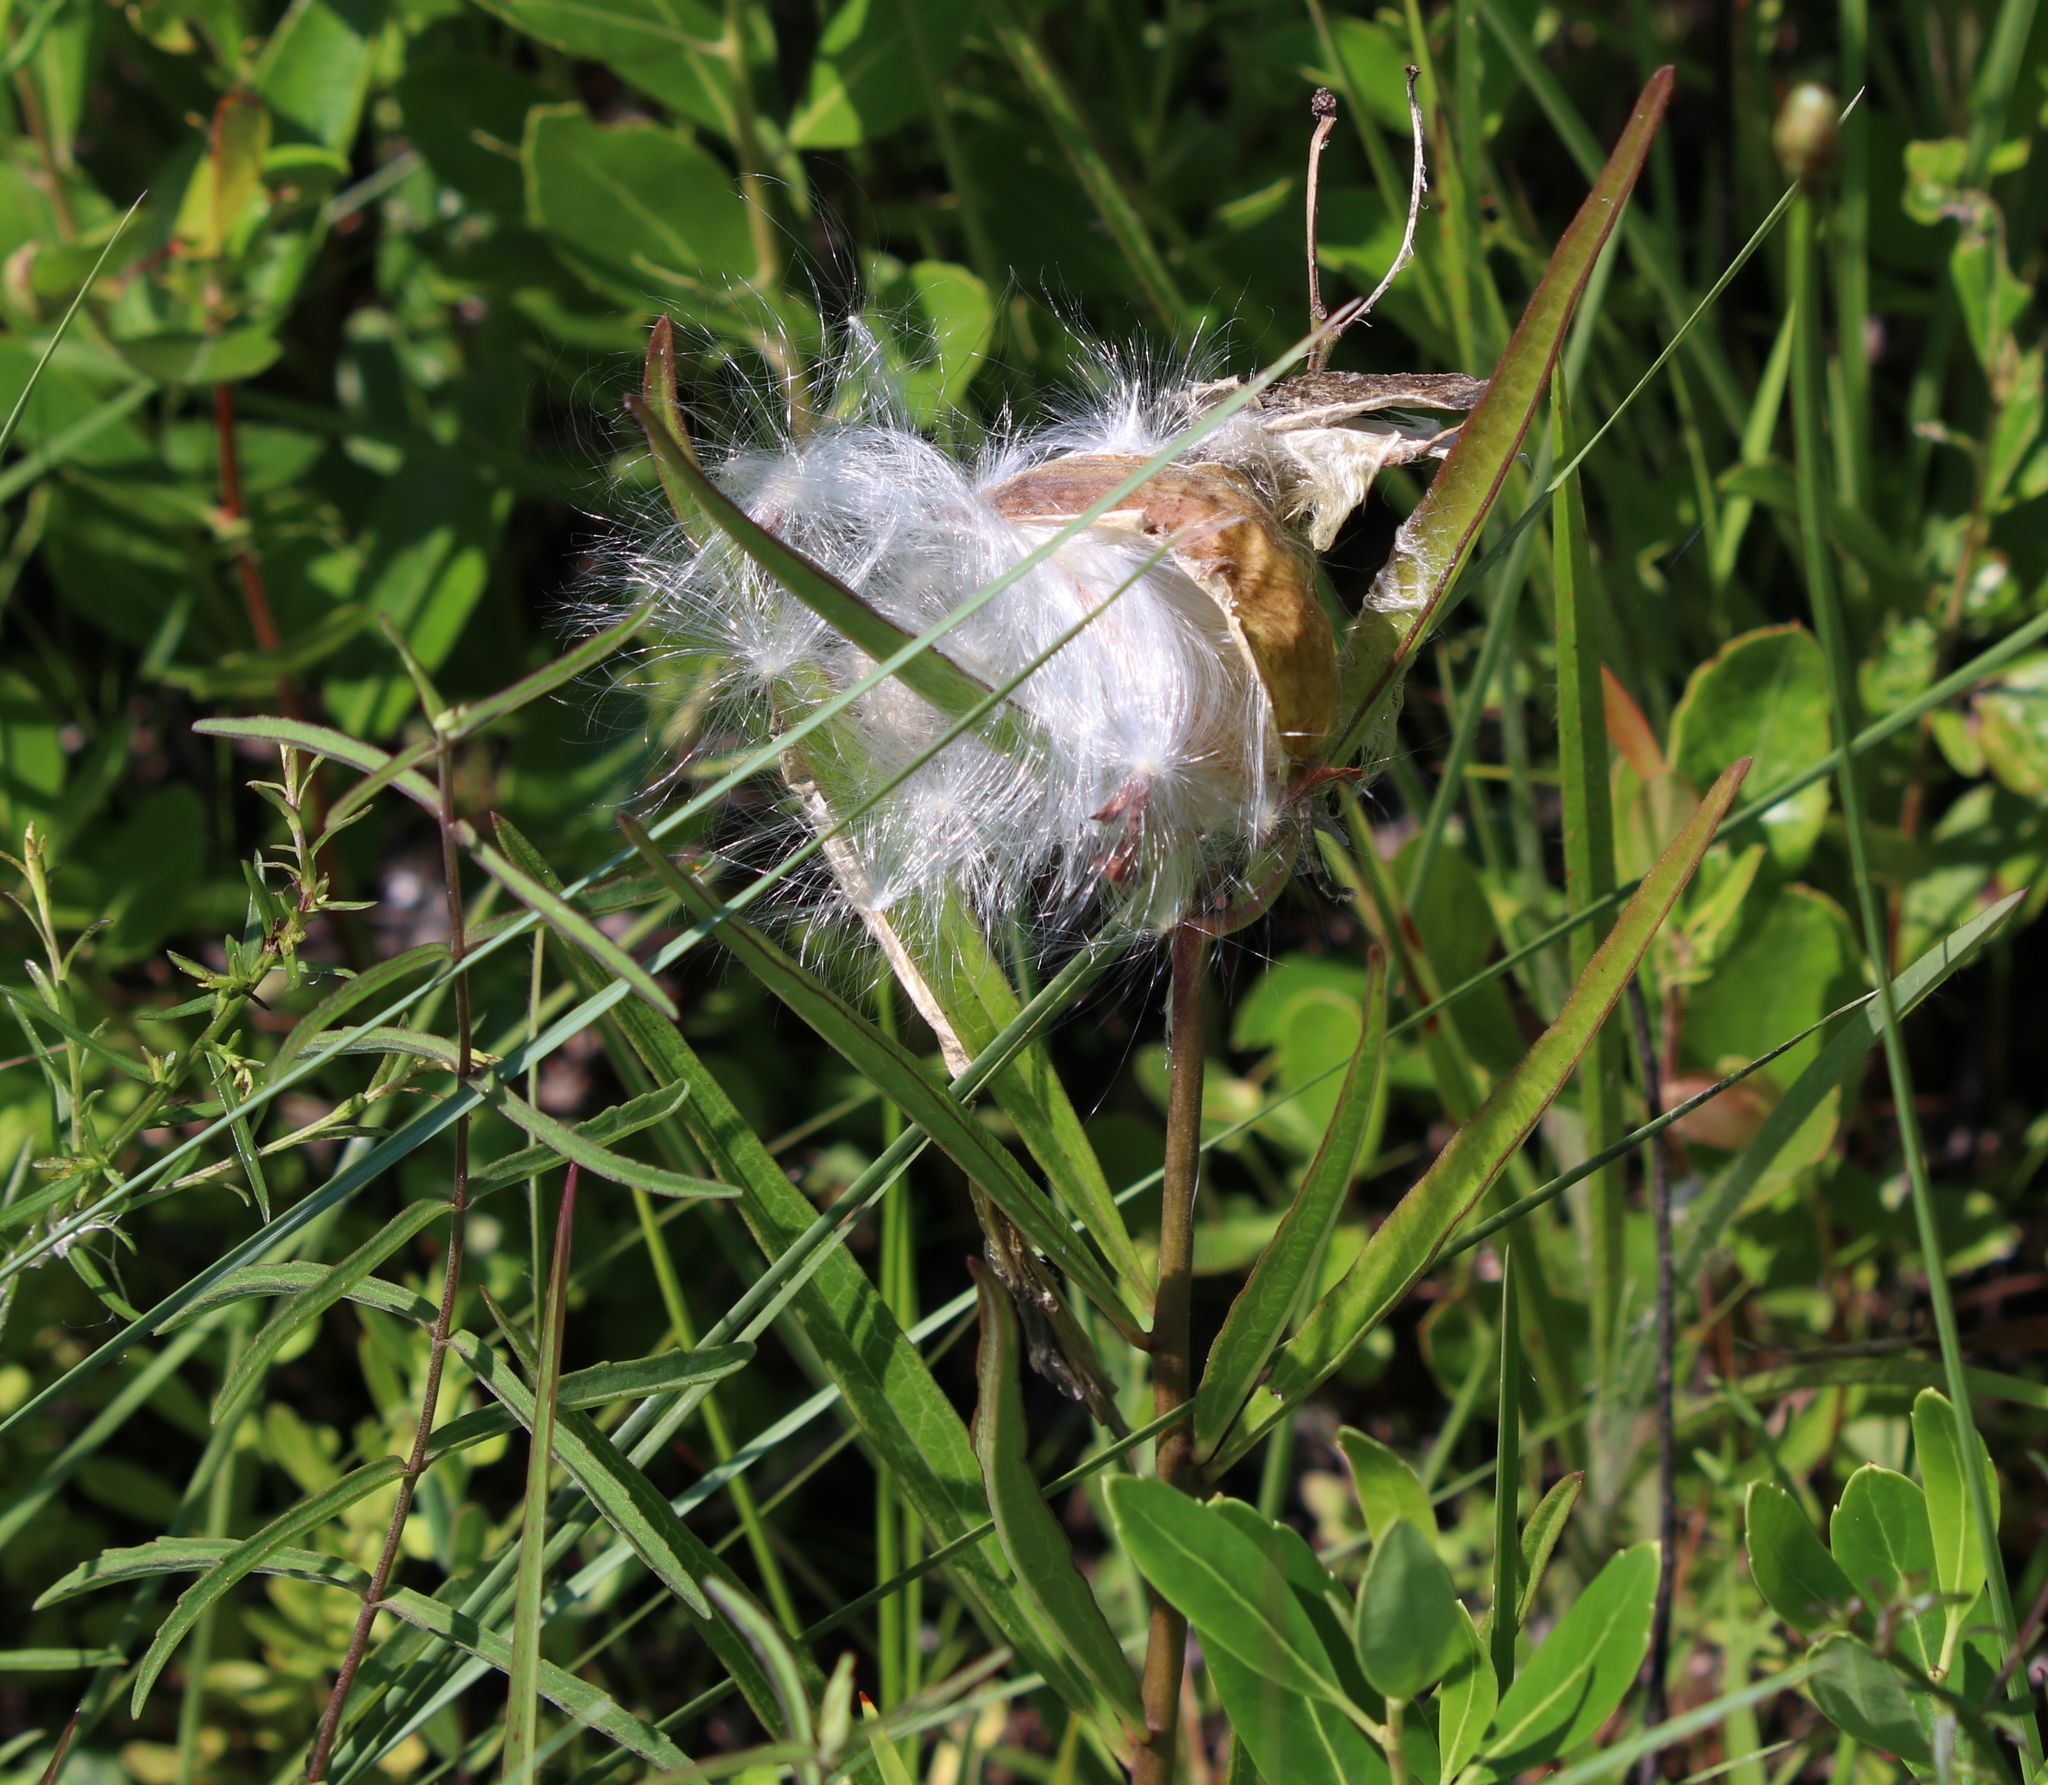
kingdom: Plantae
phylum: Tracheophyta
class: Magnoliopsida
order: Gentianales
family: Apocynaceae
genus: Asclepias
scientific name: Asclepias longifolia
